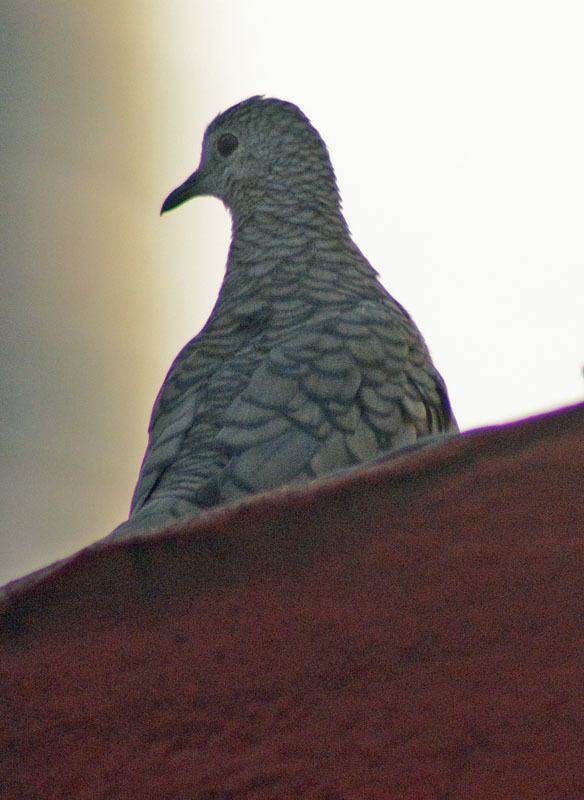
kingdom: Animalia
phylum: Chordata
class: Aves
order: Columbiformes
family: Columbidae
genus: Columbina
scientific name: Columbina inca
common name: Inca dove
